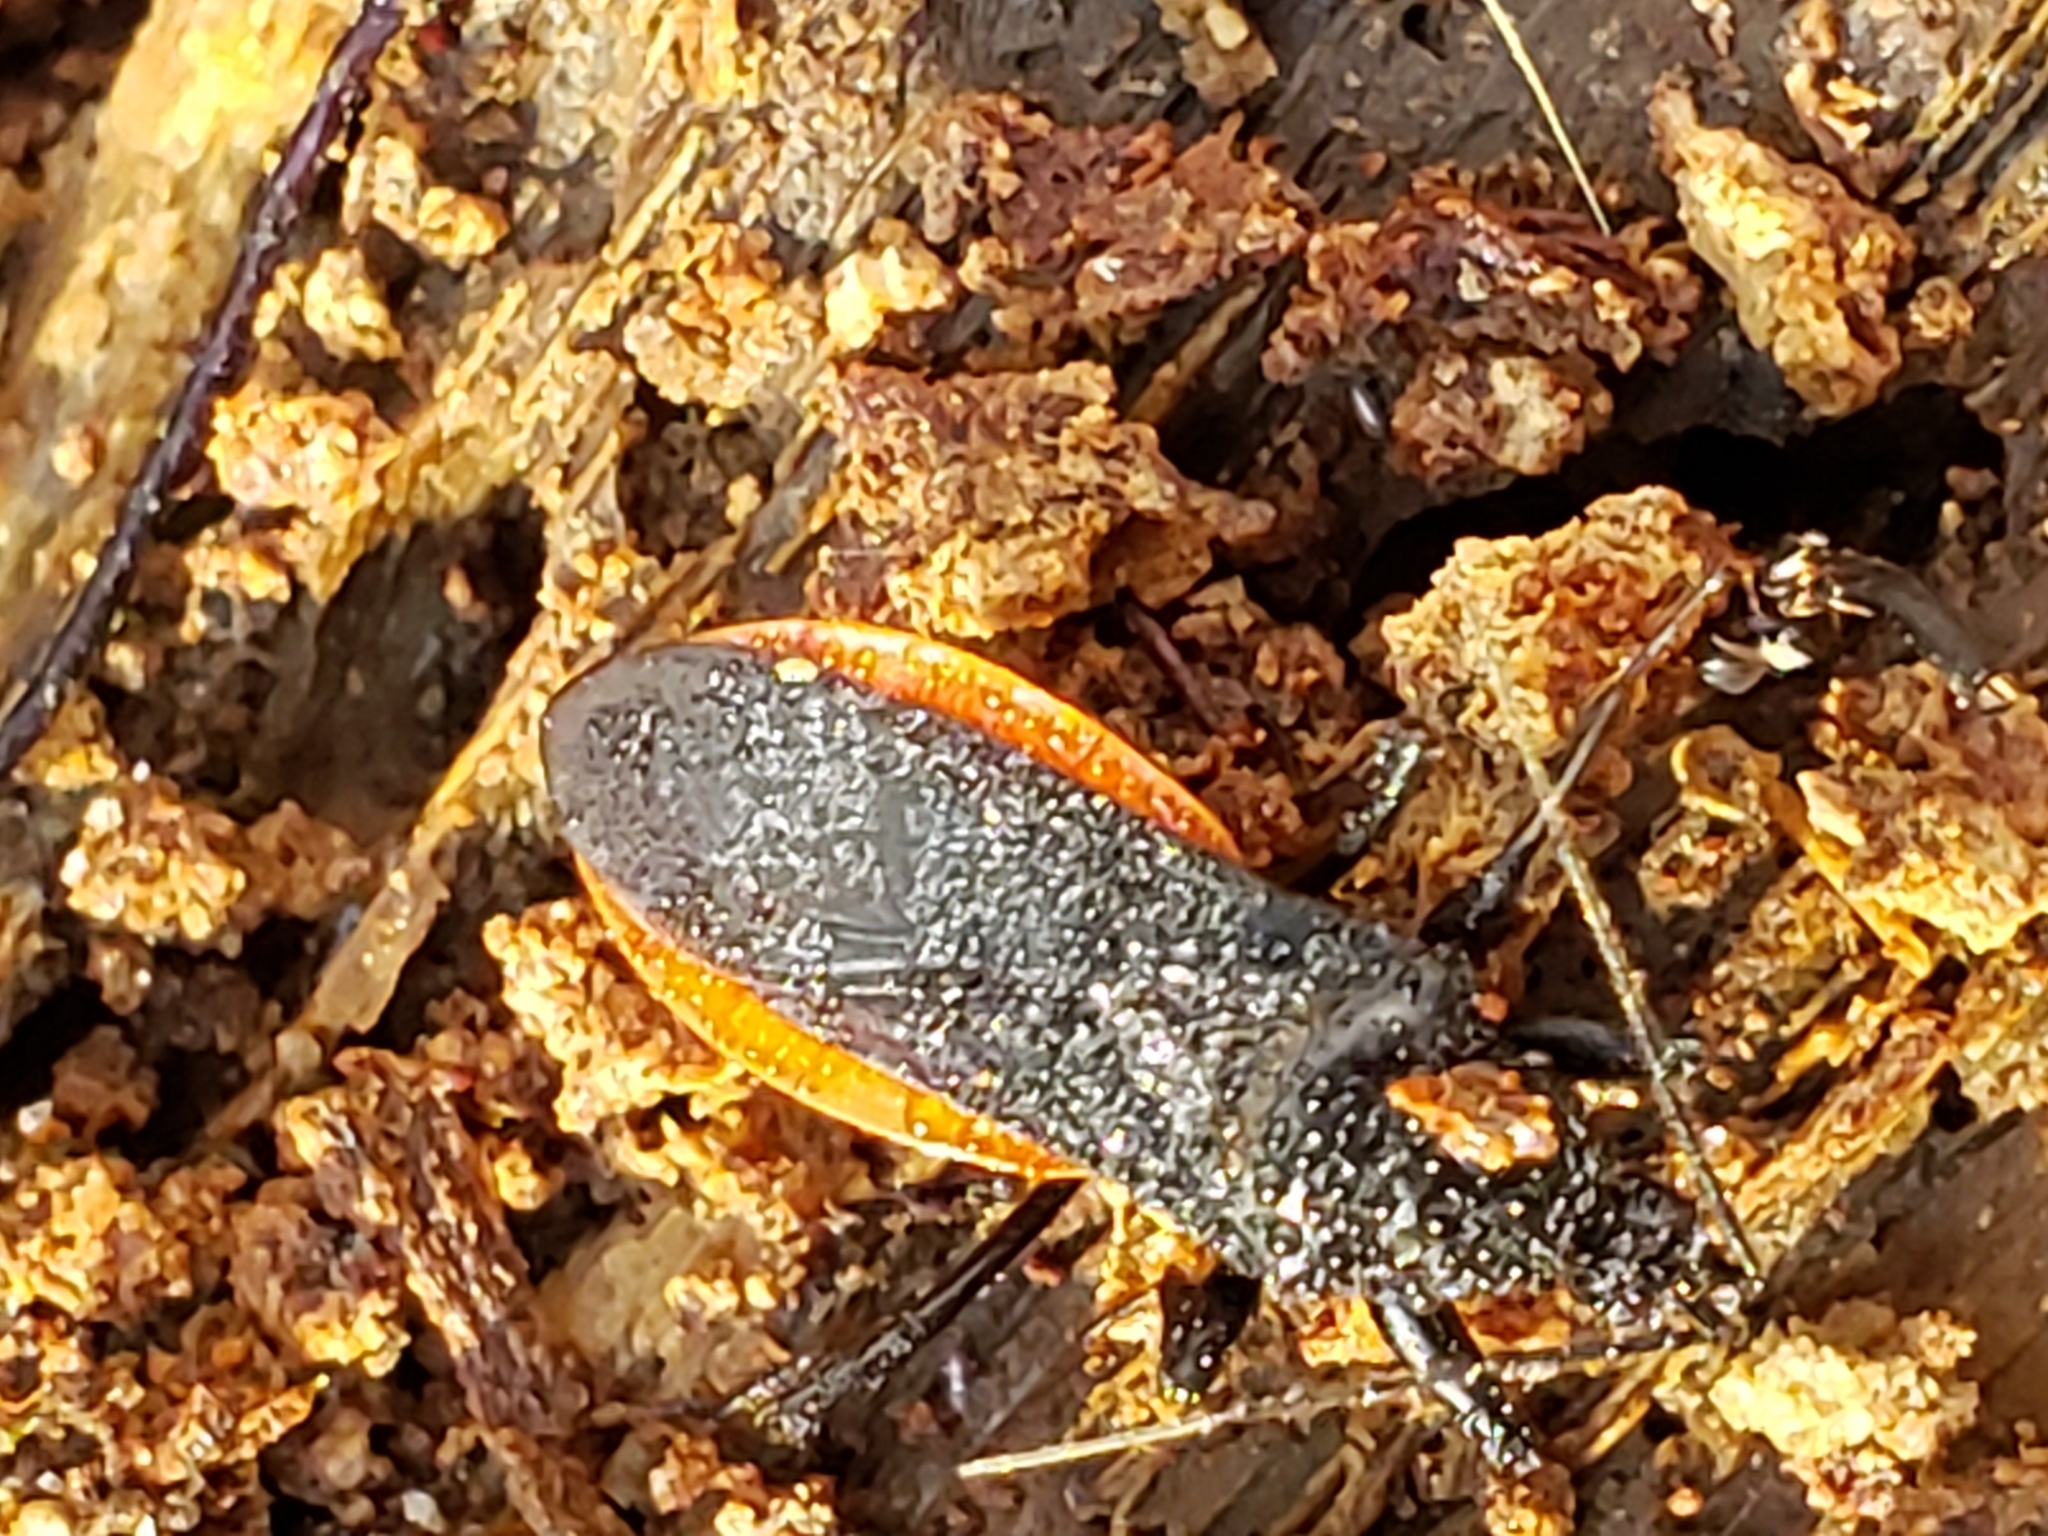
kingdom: Animalia
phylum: Arthropoda
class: Insecta
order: Hemiptera
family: Reduviidae
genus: Melanolestes
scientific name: Melanolestes picipes
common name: Assassin bug
